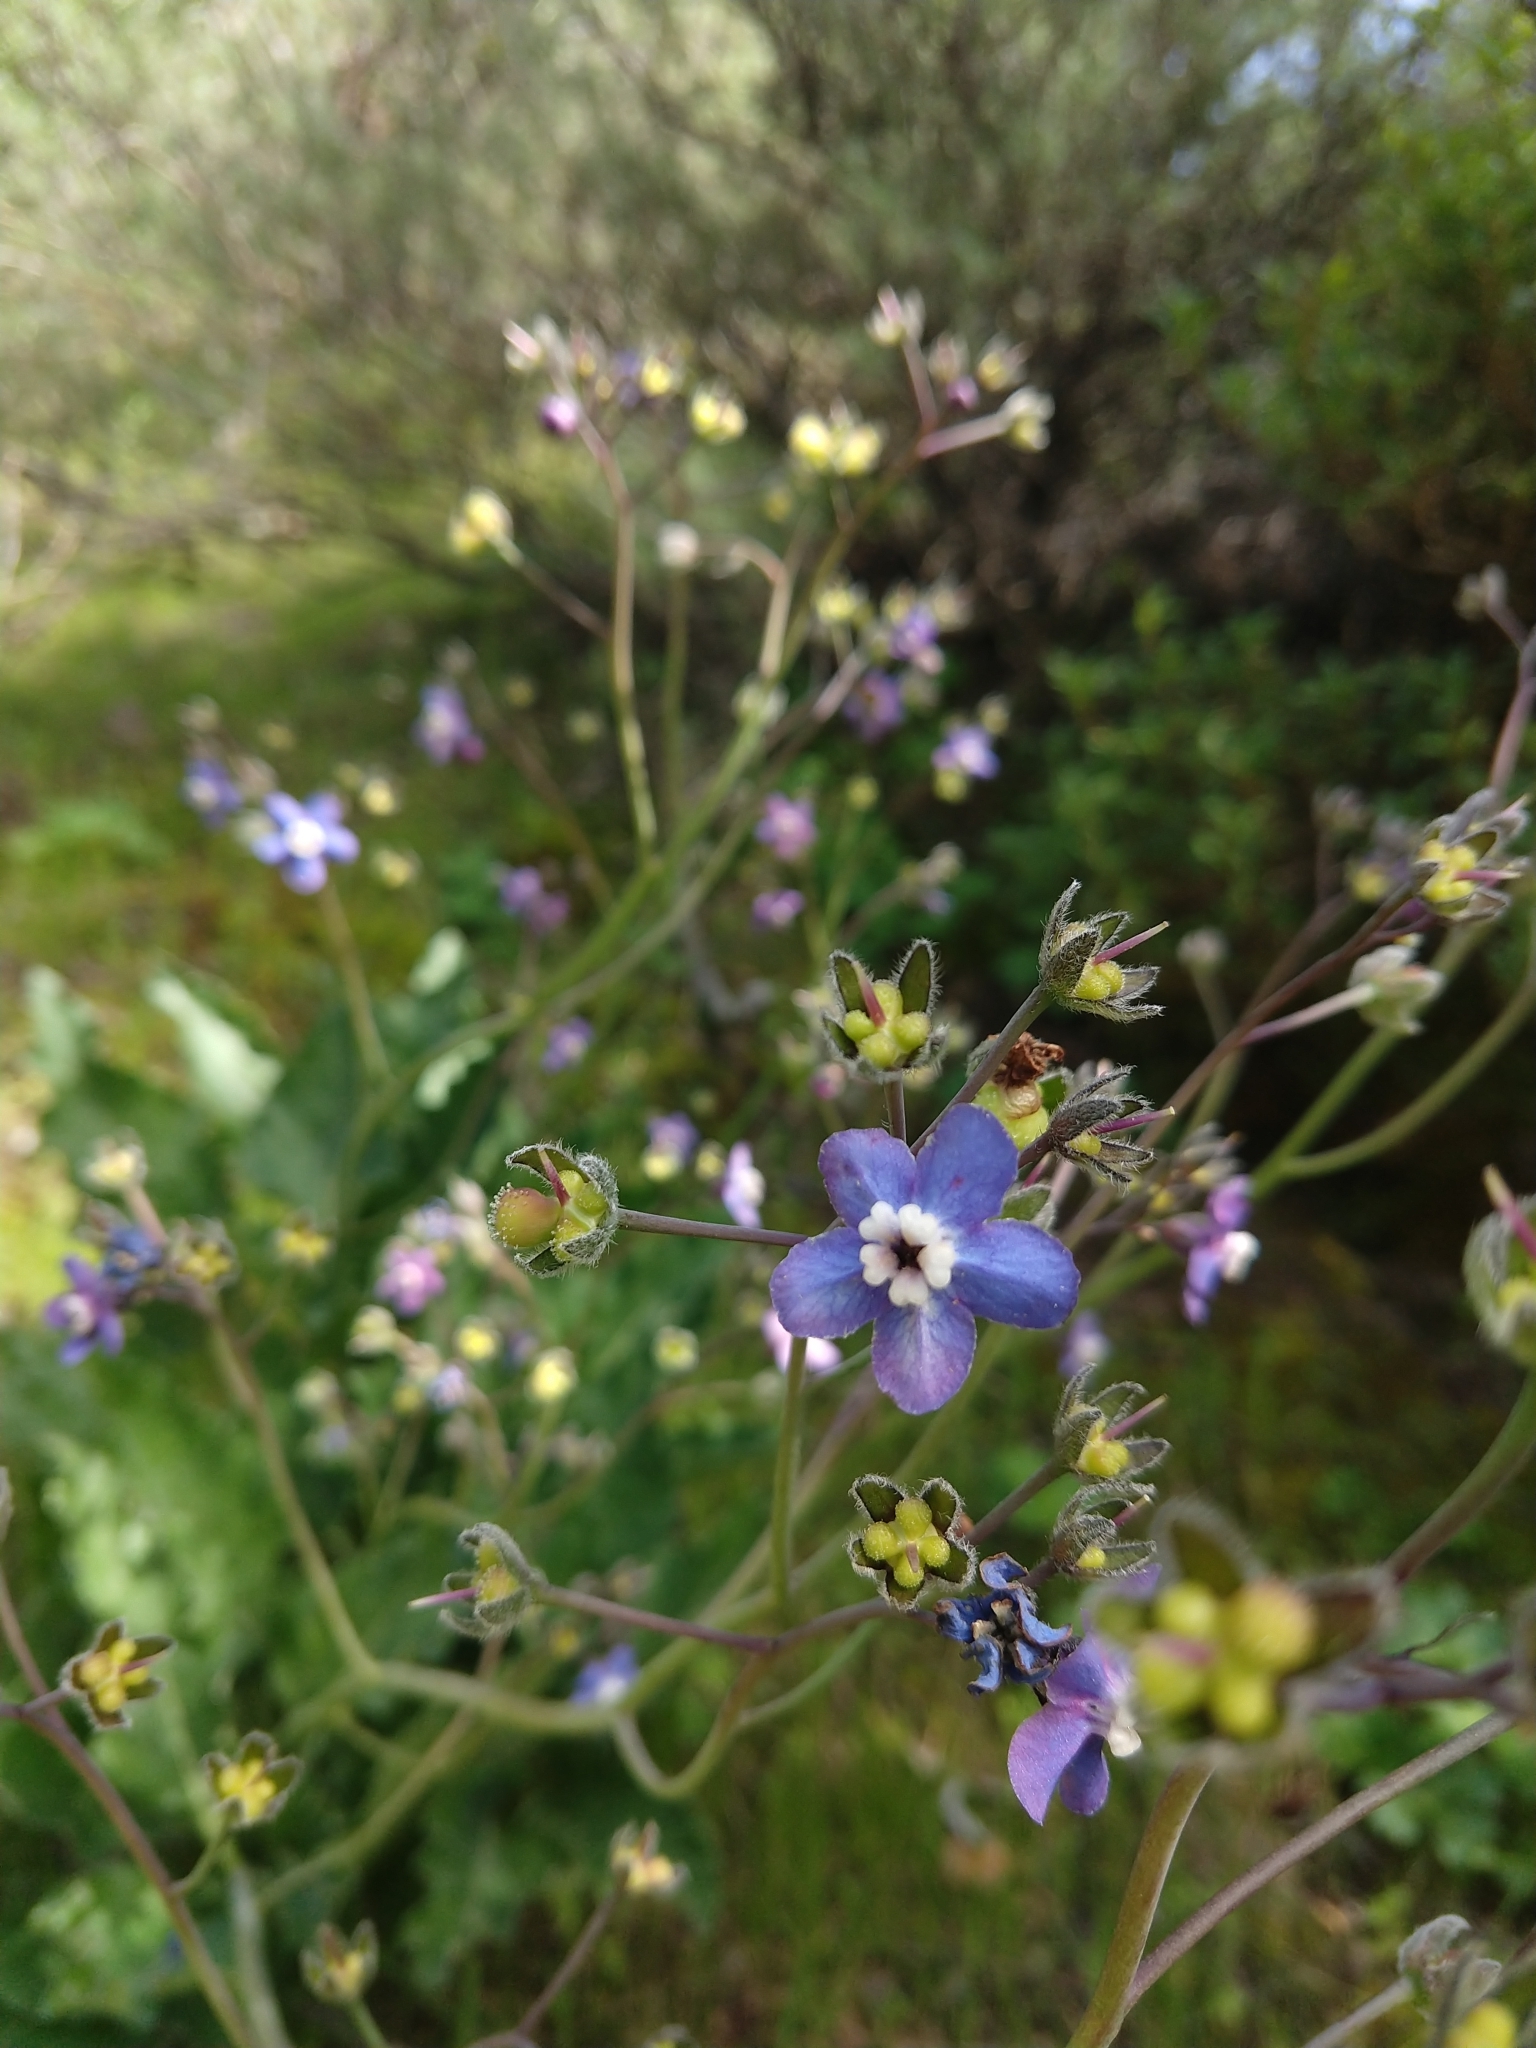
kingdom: Plantae
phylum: Tracheophyta
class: Magnoliopsida
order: Boraginales
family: Boraginaceae
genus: Adelinia
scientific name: Adelinia grande
